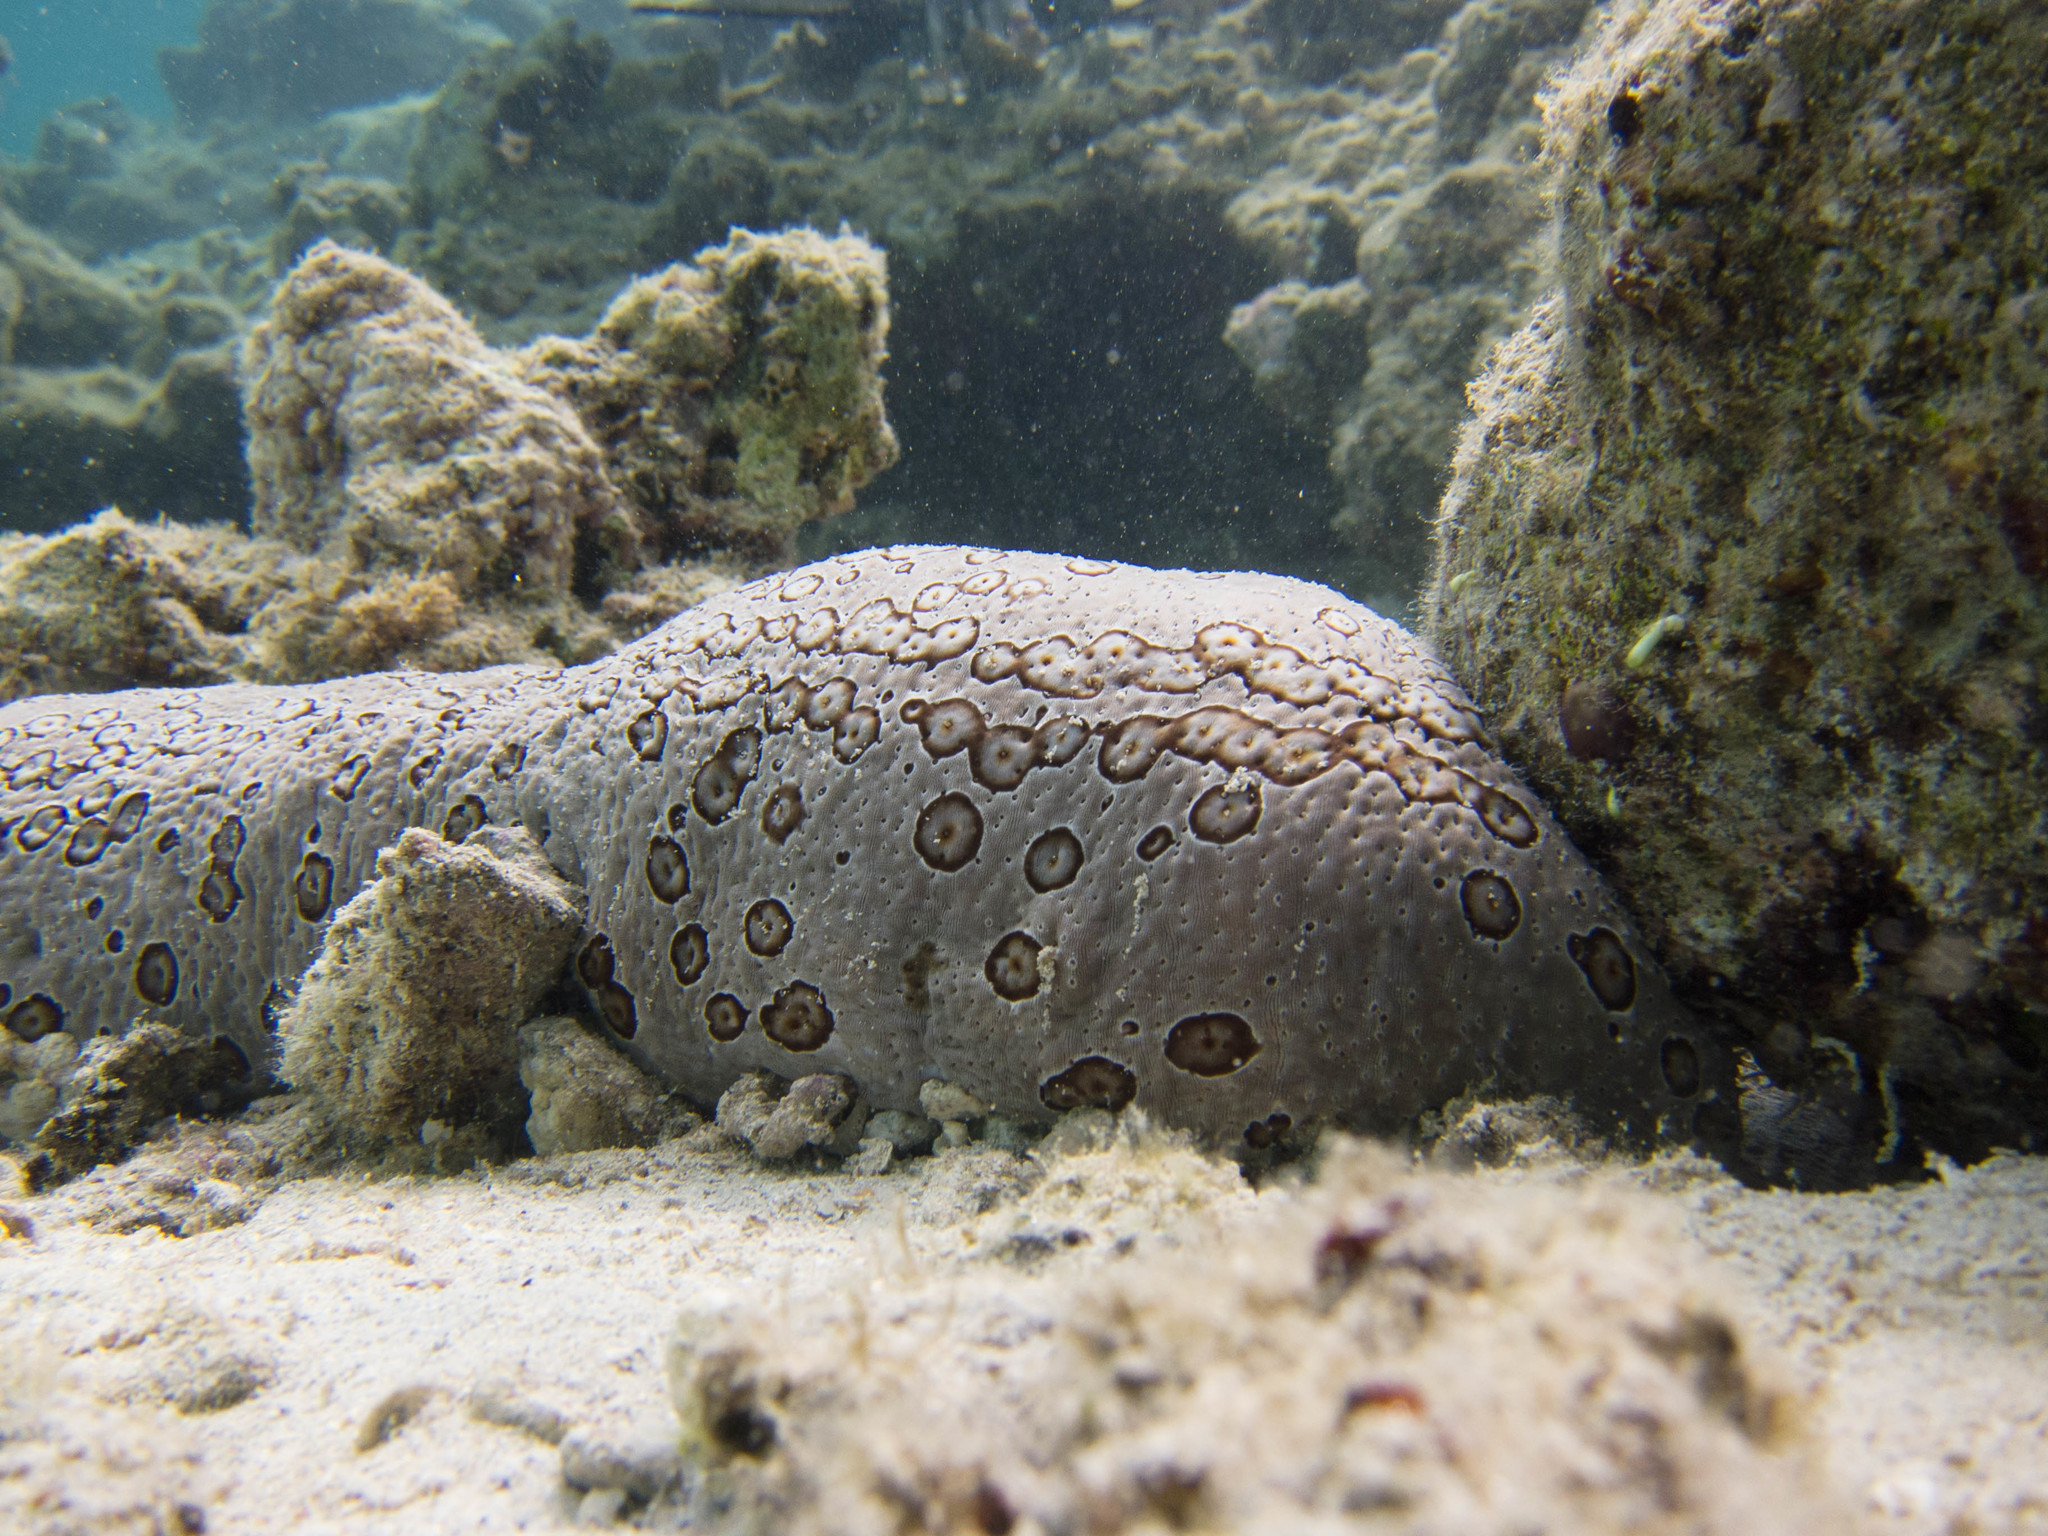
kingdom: Animalia
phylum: Echinodermata
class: Holothuroidea
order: Holothuriida
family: Holothuriidae
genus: Bohadschia
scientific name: Bohadschia argus
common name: Leopardfish
